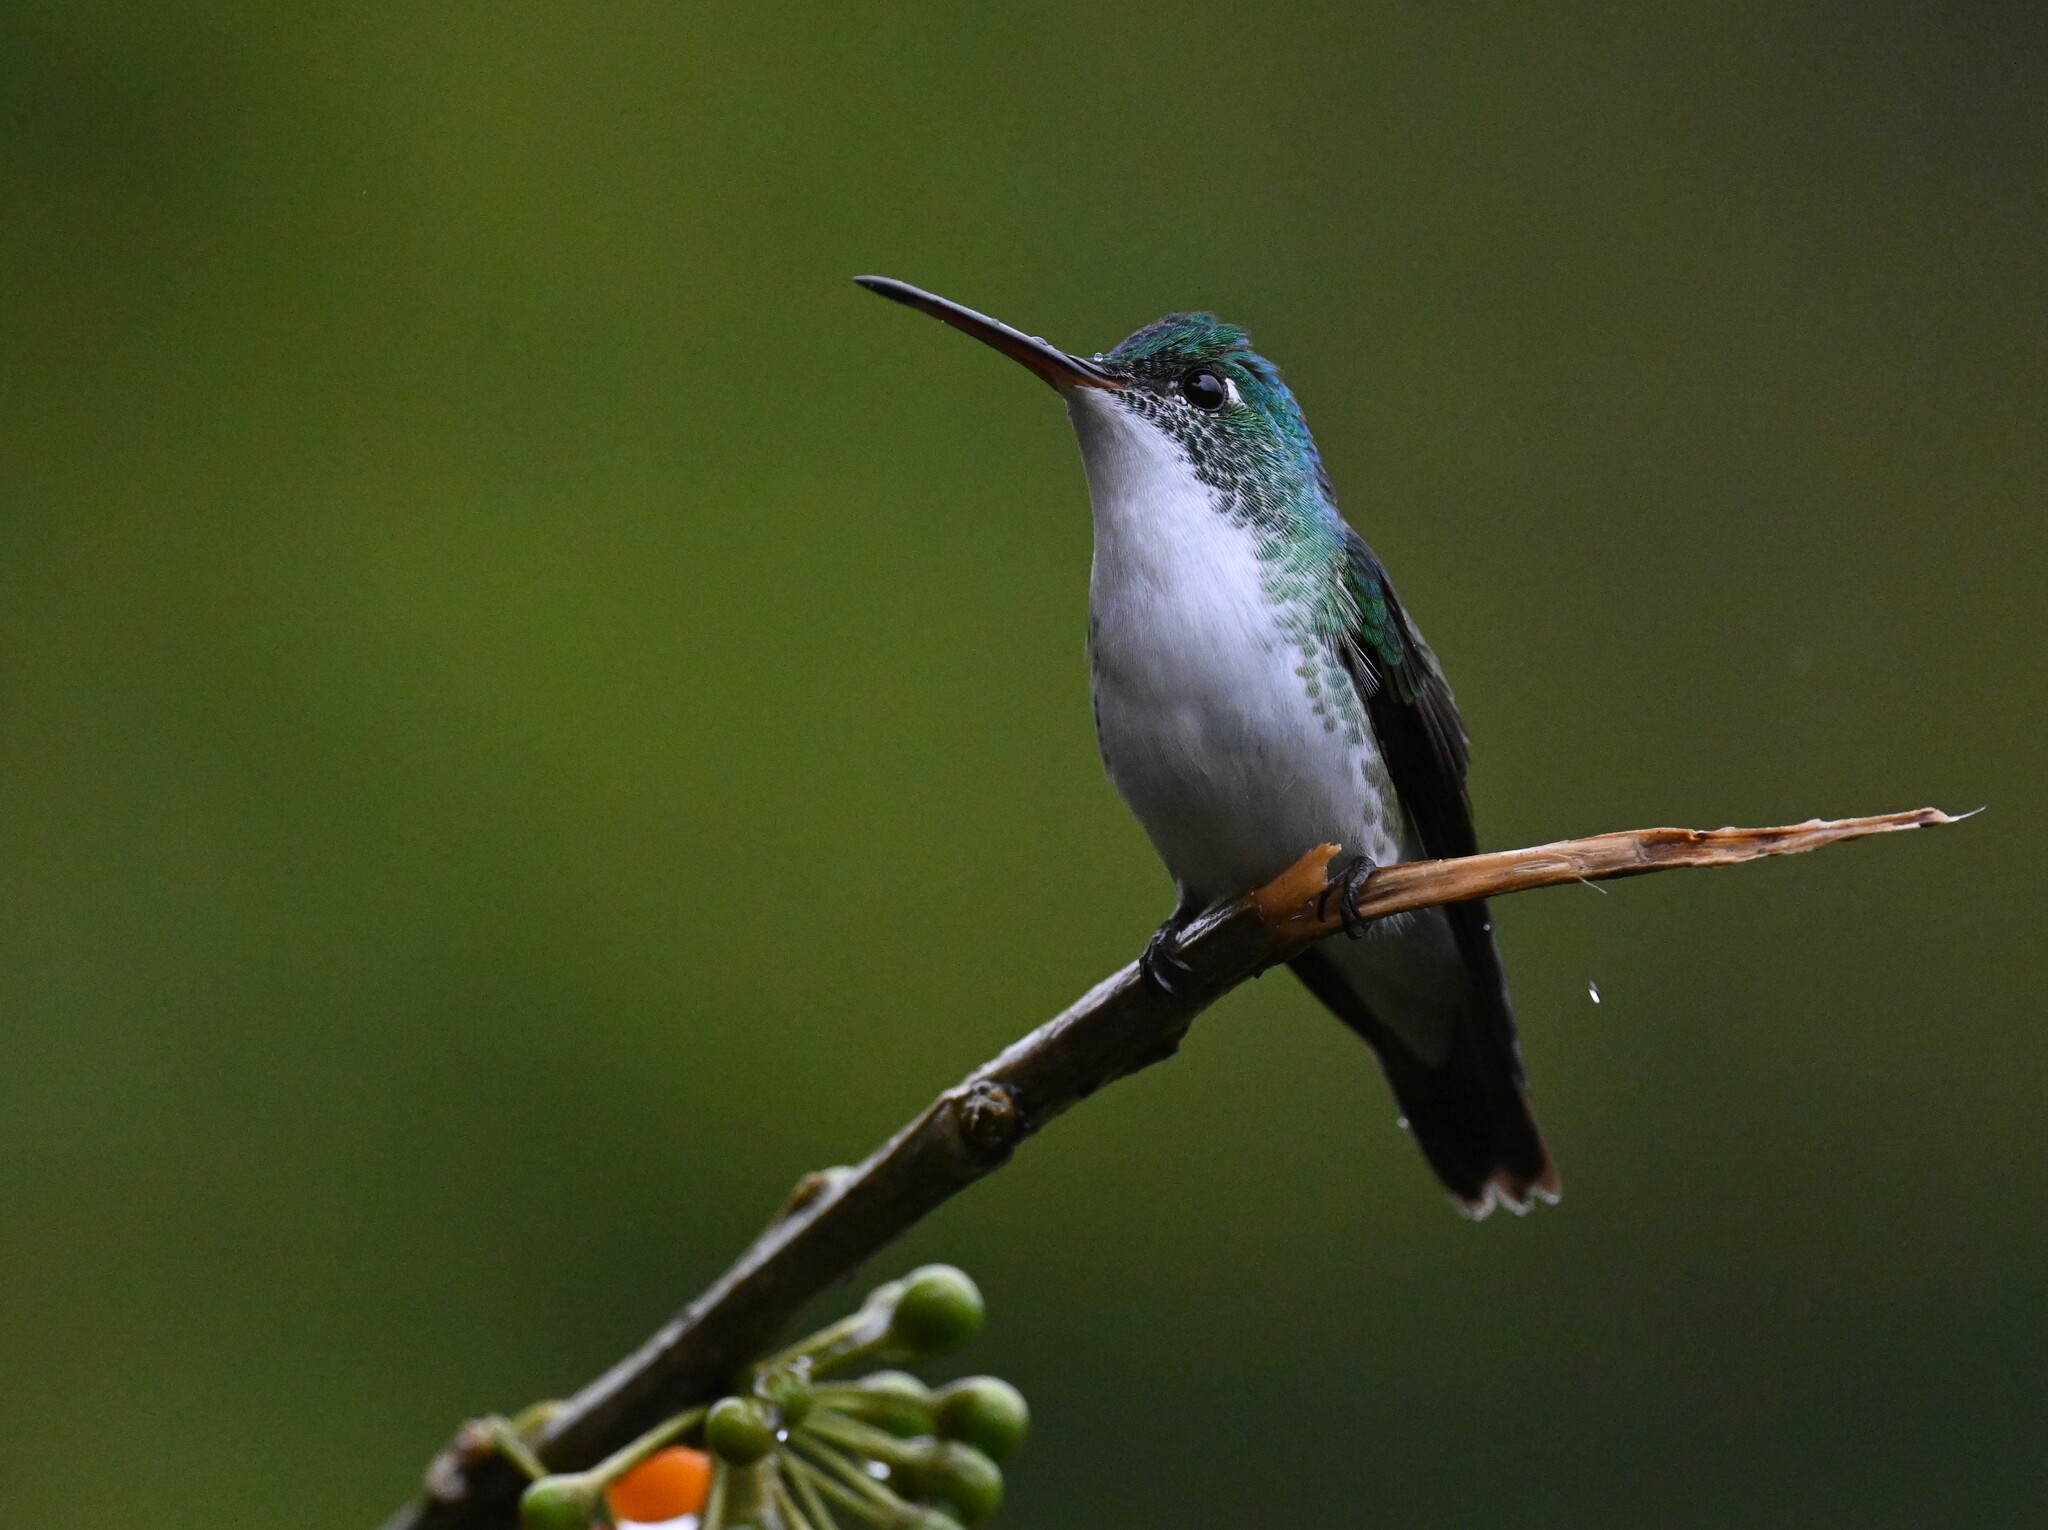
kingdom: Animalia
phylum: Chordata
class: Aves
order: Apodiformes
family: Trochilidae
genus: Uranomitra
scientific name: Uranomitra franciae
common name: Andean emerald
